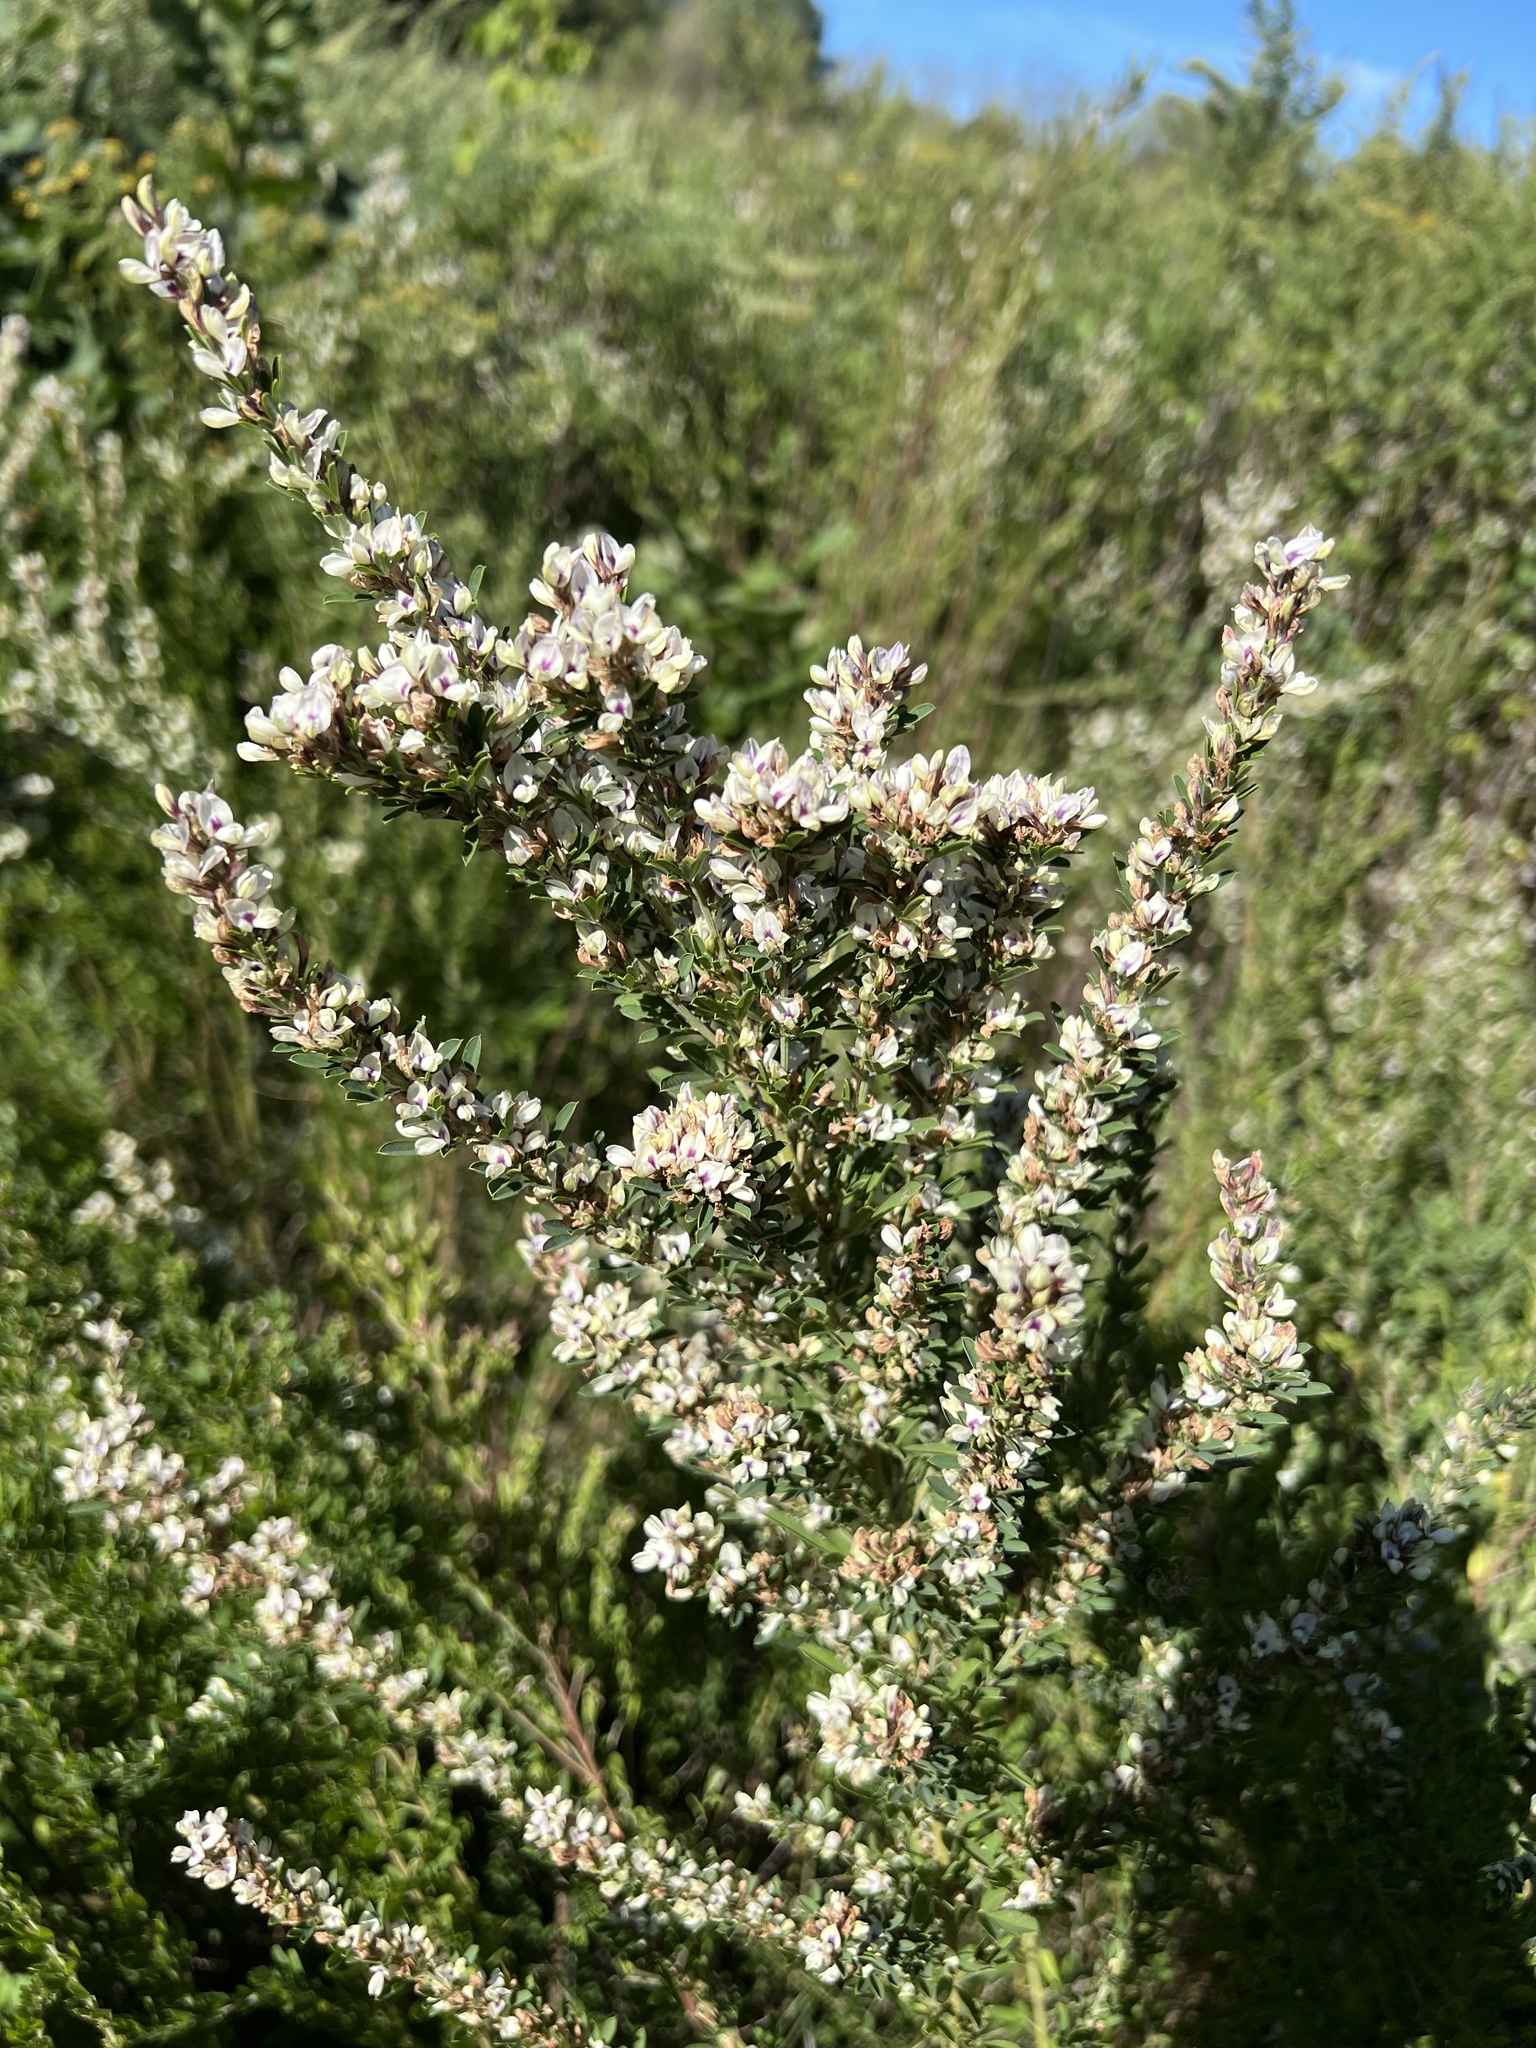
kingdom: Plantae
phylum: Tracheophyta
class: Magnoliopsida
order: Fabales
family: Fabaceae
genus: Lespedeza
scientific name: Lespedeza cuneata
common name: Chinese bush-clover
